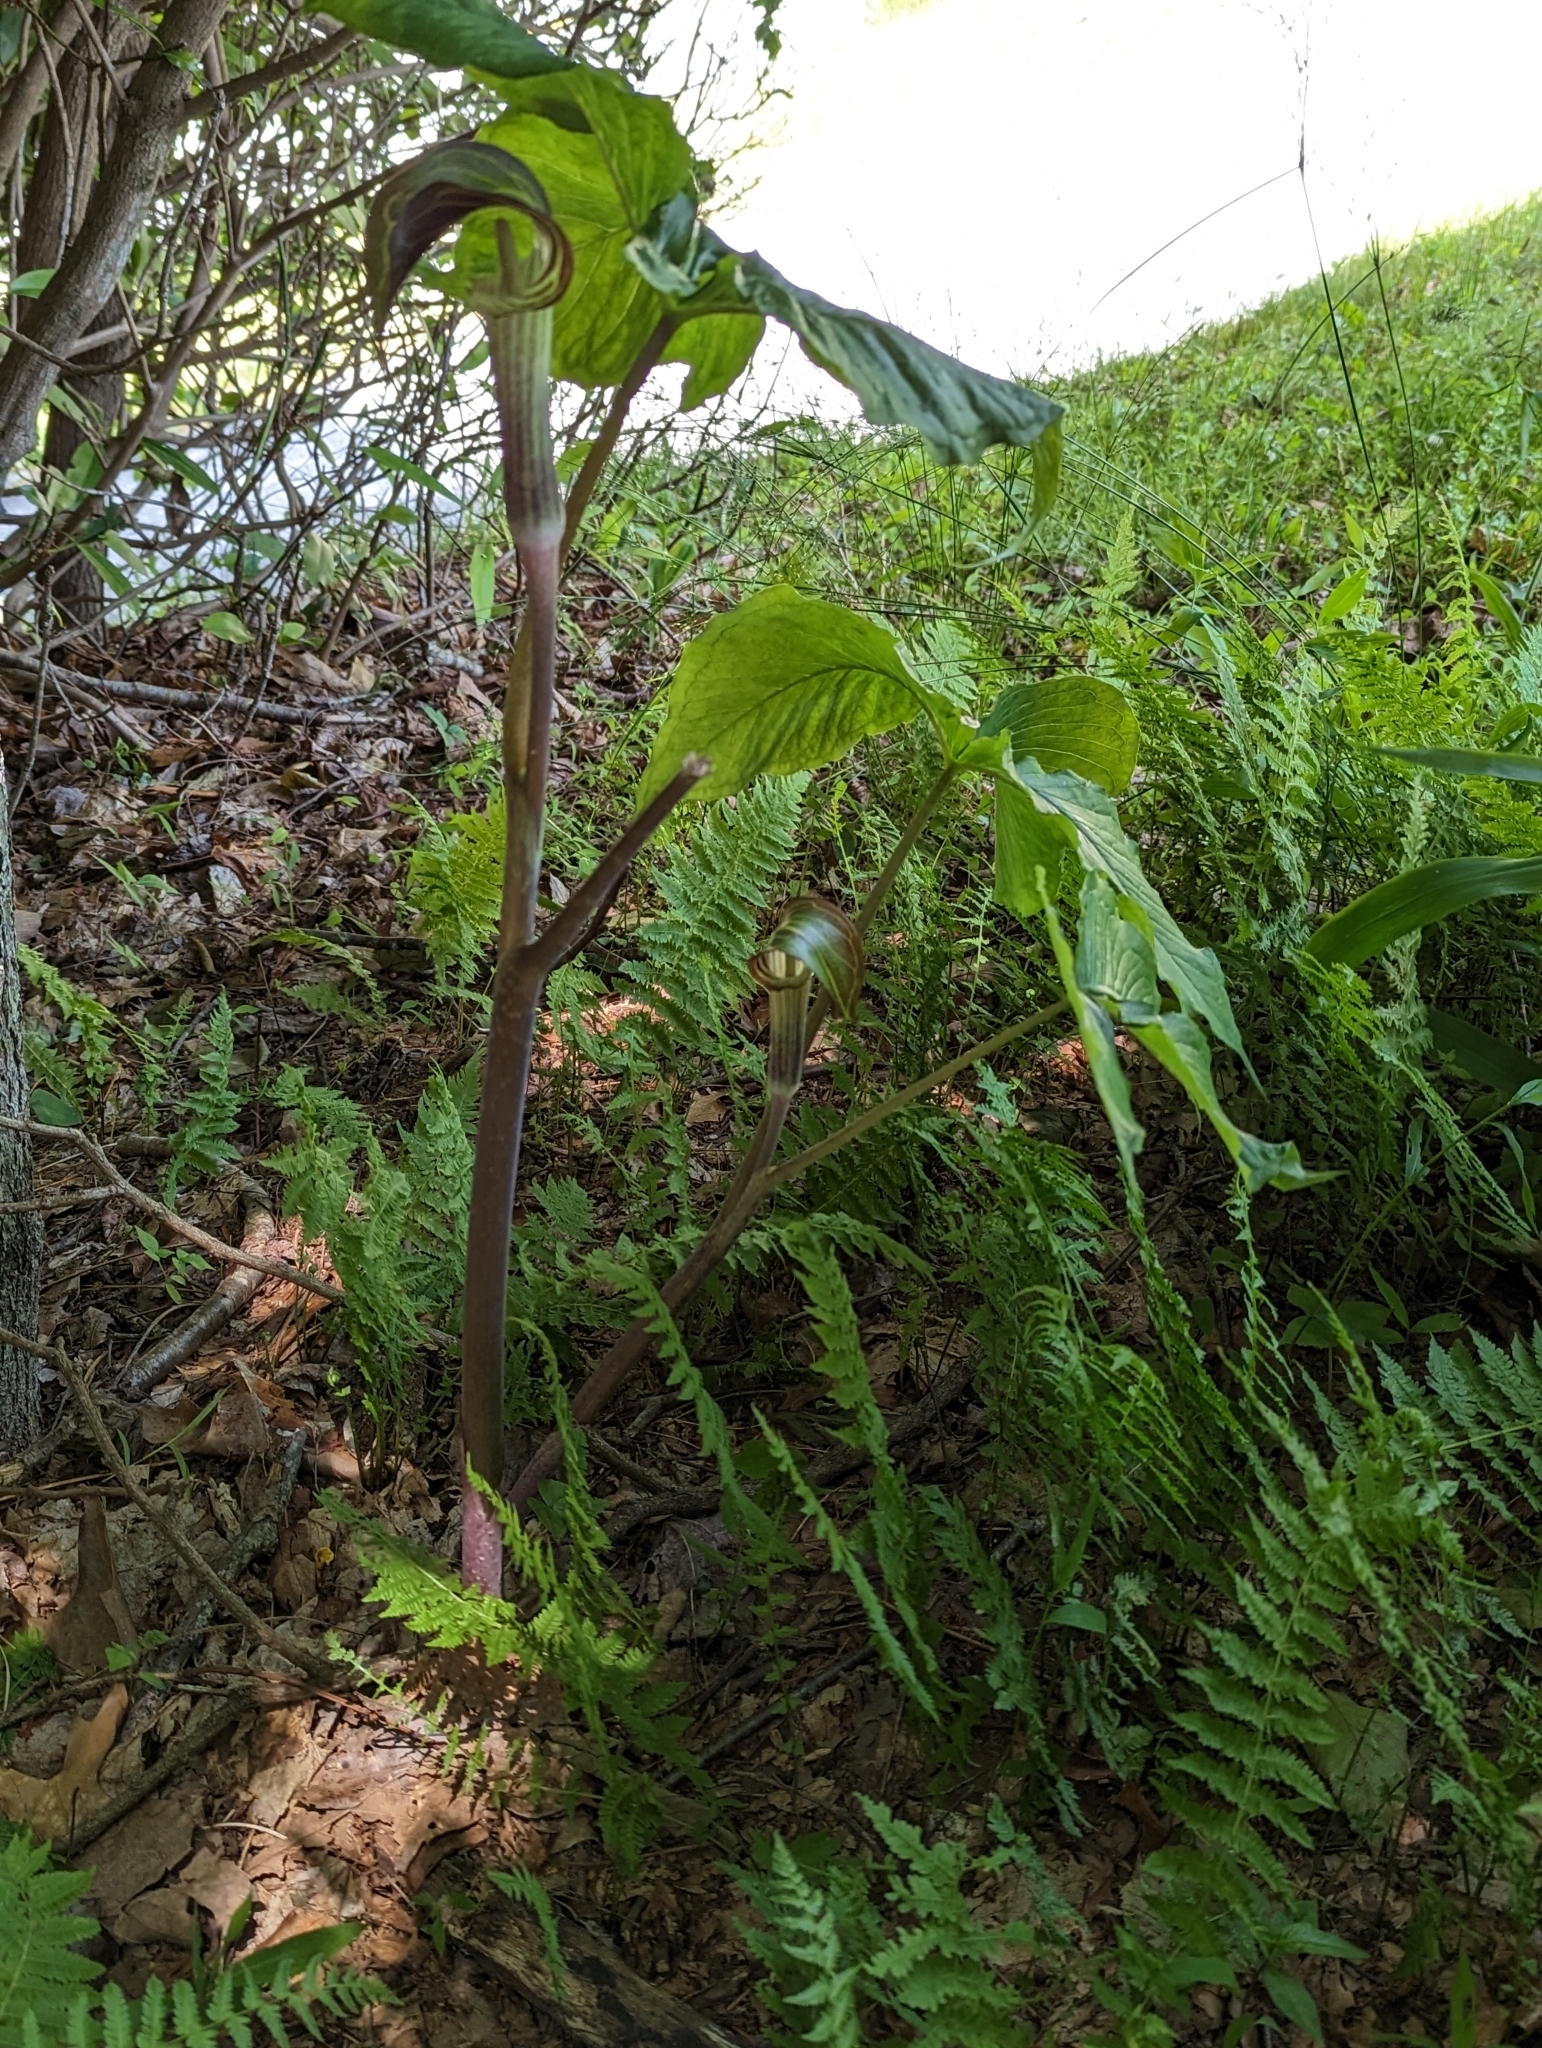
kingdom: Plantae
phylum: Tracheophyta
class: Liliopsida
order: Alismatales
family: Araceae
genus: Arisaema
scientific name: Arisaema triphyllum
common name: Jack-in-the-pulpit
